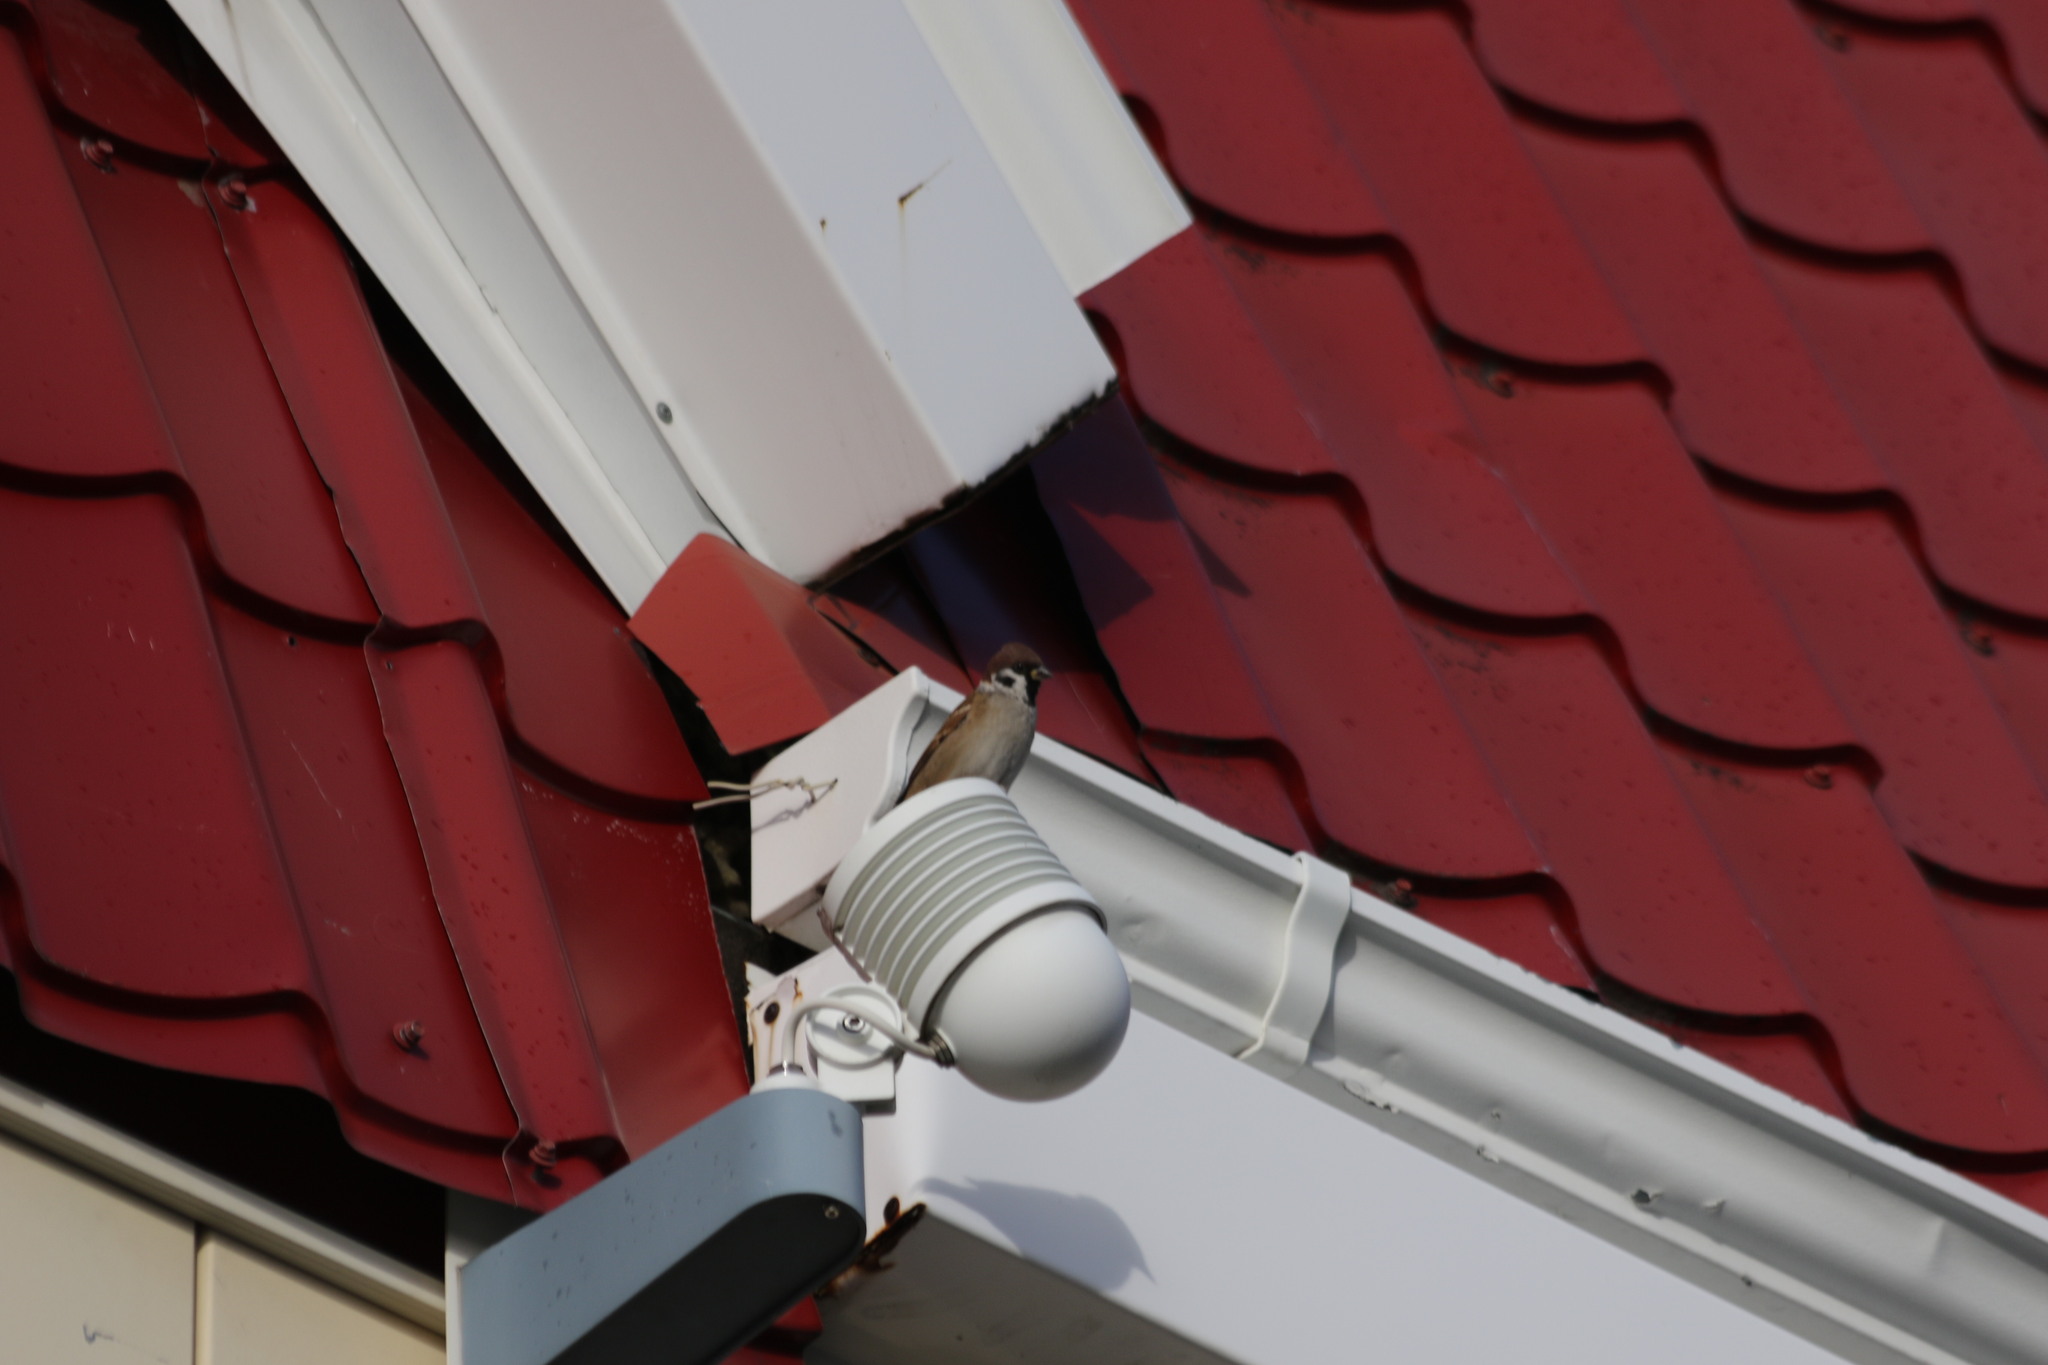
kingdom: Animalia
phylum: Chordata
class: Aves
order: Passeriformes
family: Passeridae
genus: Passer
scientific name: Passer montanus
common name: Eurasian tree sparrow
